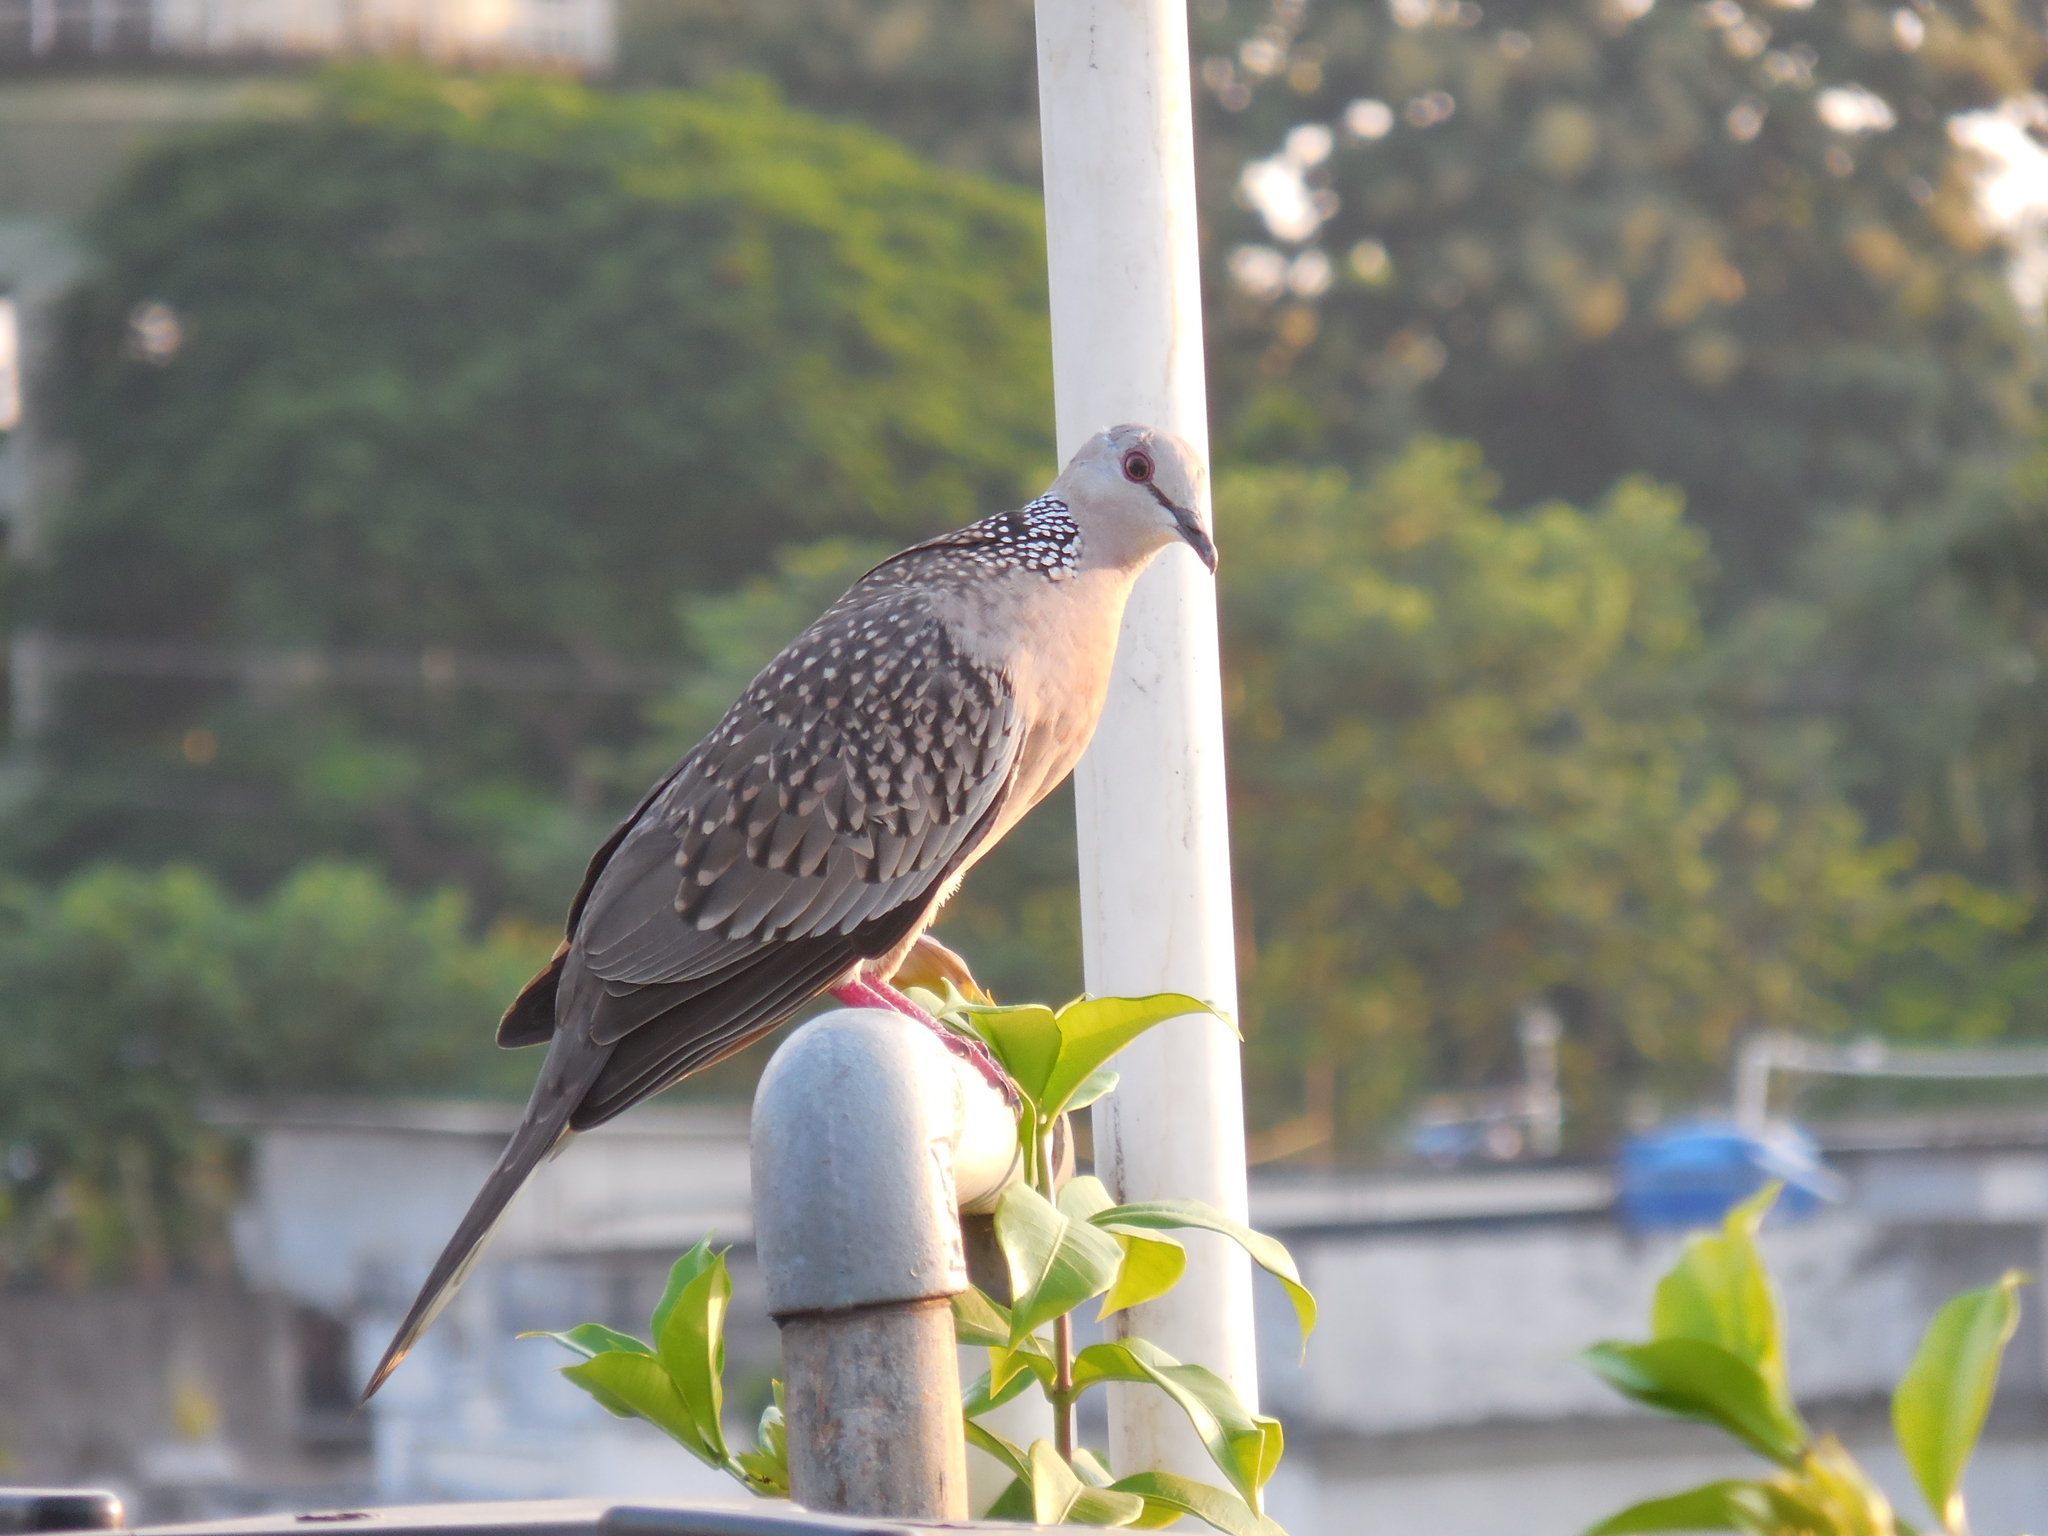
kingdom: Animalia
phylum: Chordata
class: Aves
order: Columbiformes
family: Columbidae
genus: Spilopelia
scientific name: Spilopelia chinensis
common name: Spotted dove
